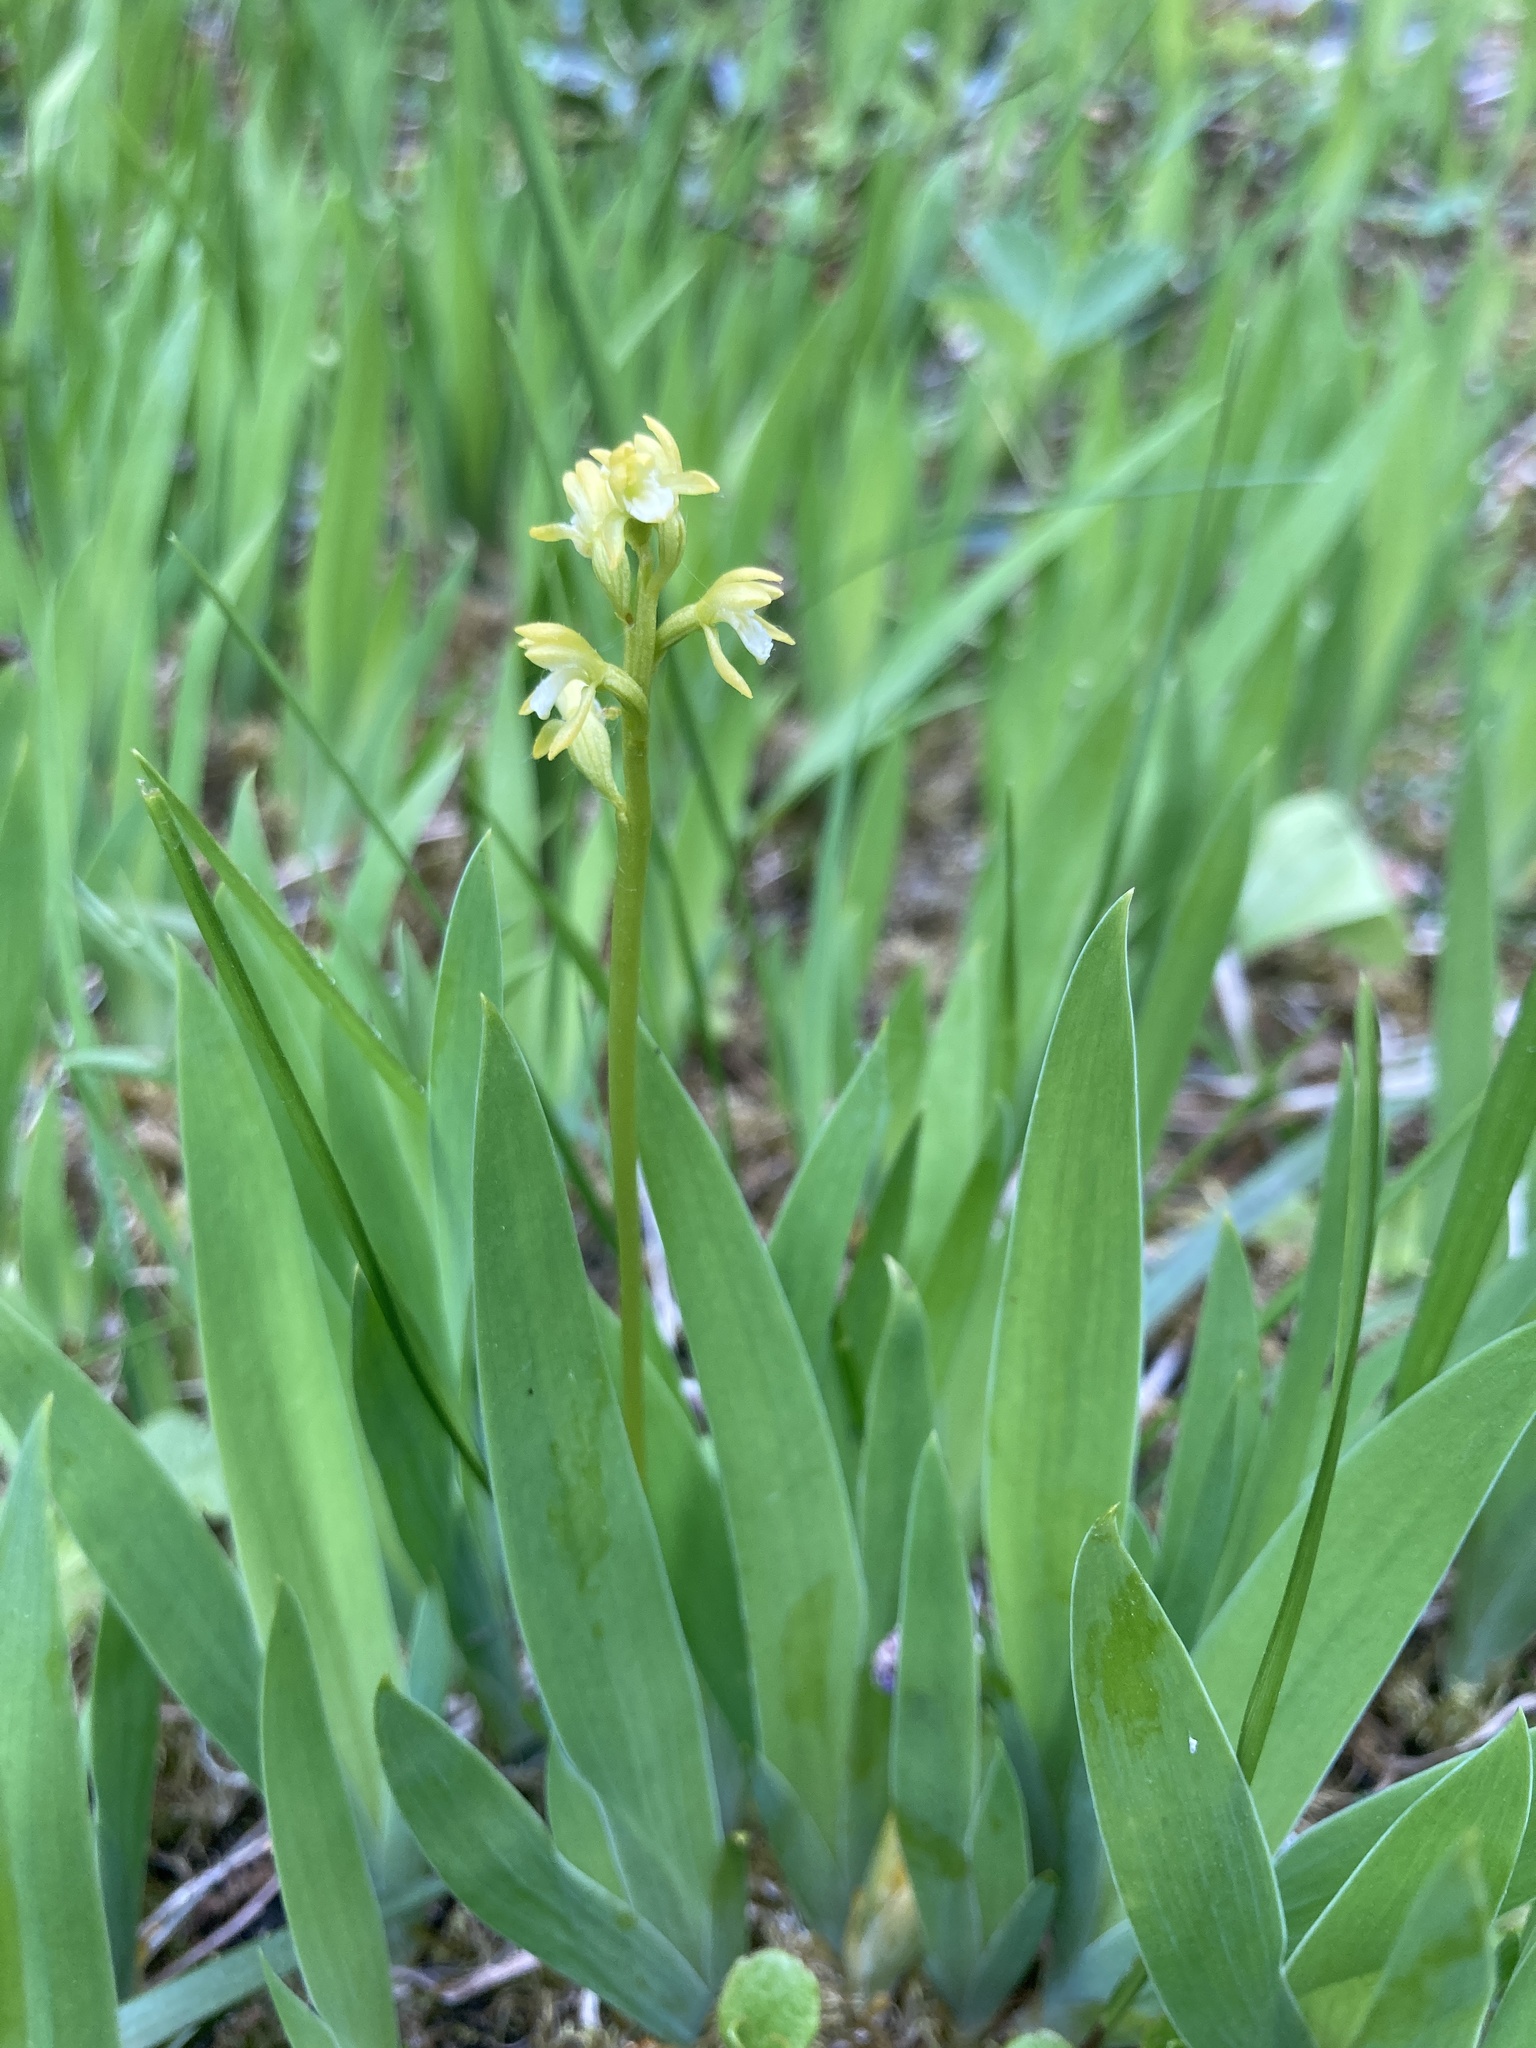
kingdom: Plantae
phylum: Tracheophyta
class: Liliopsida
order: Asparagales
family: Orchidaceae
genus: Corallorhiza
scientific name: Corallorhiza trifida
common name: Yellow coralroot
